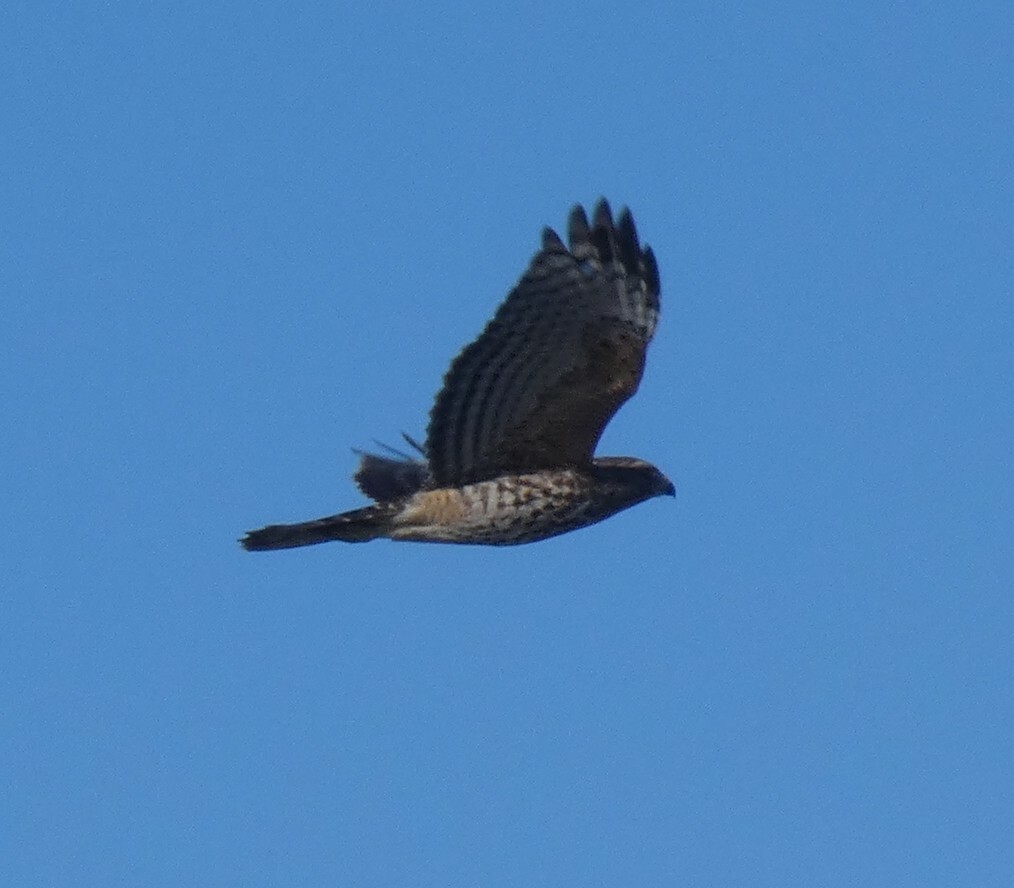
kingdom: Animalia
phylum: Chordata
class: Aves
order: Accipitriformes
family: Accipitridae
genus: Buteo
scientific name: Buteo lineatus
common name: Red-shouldered hawk
